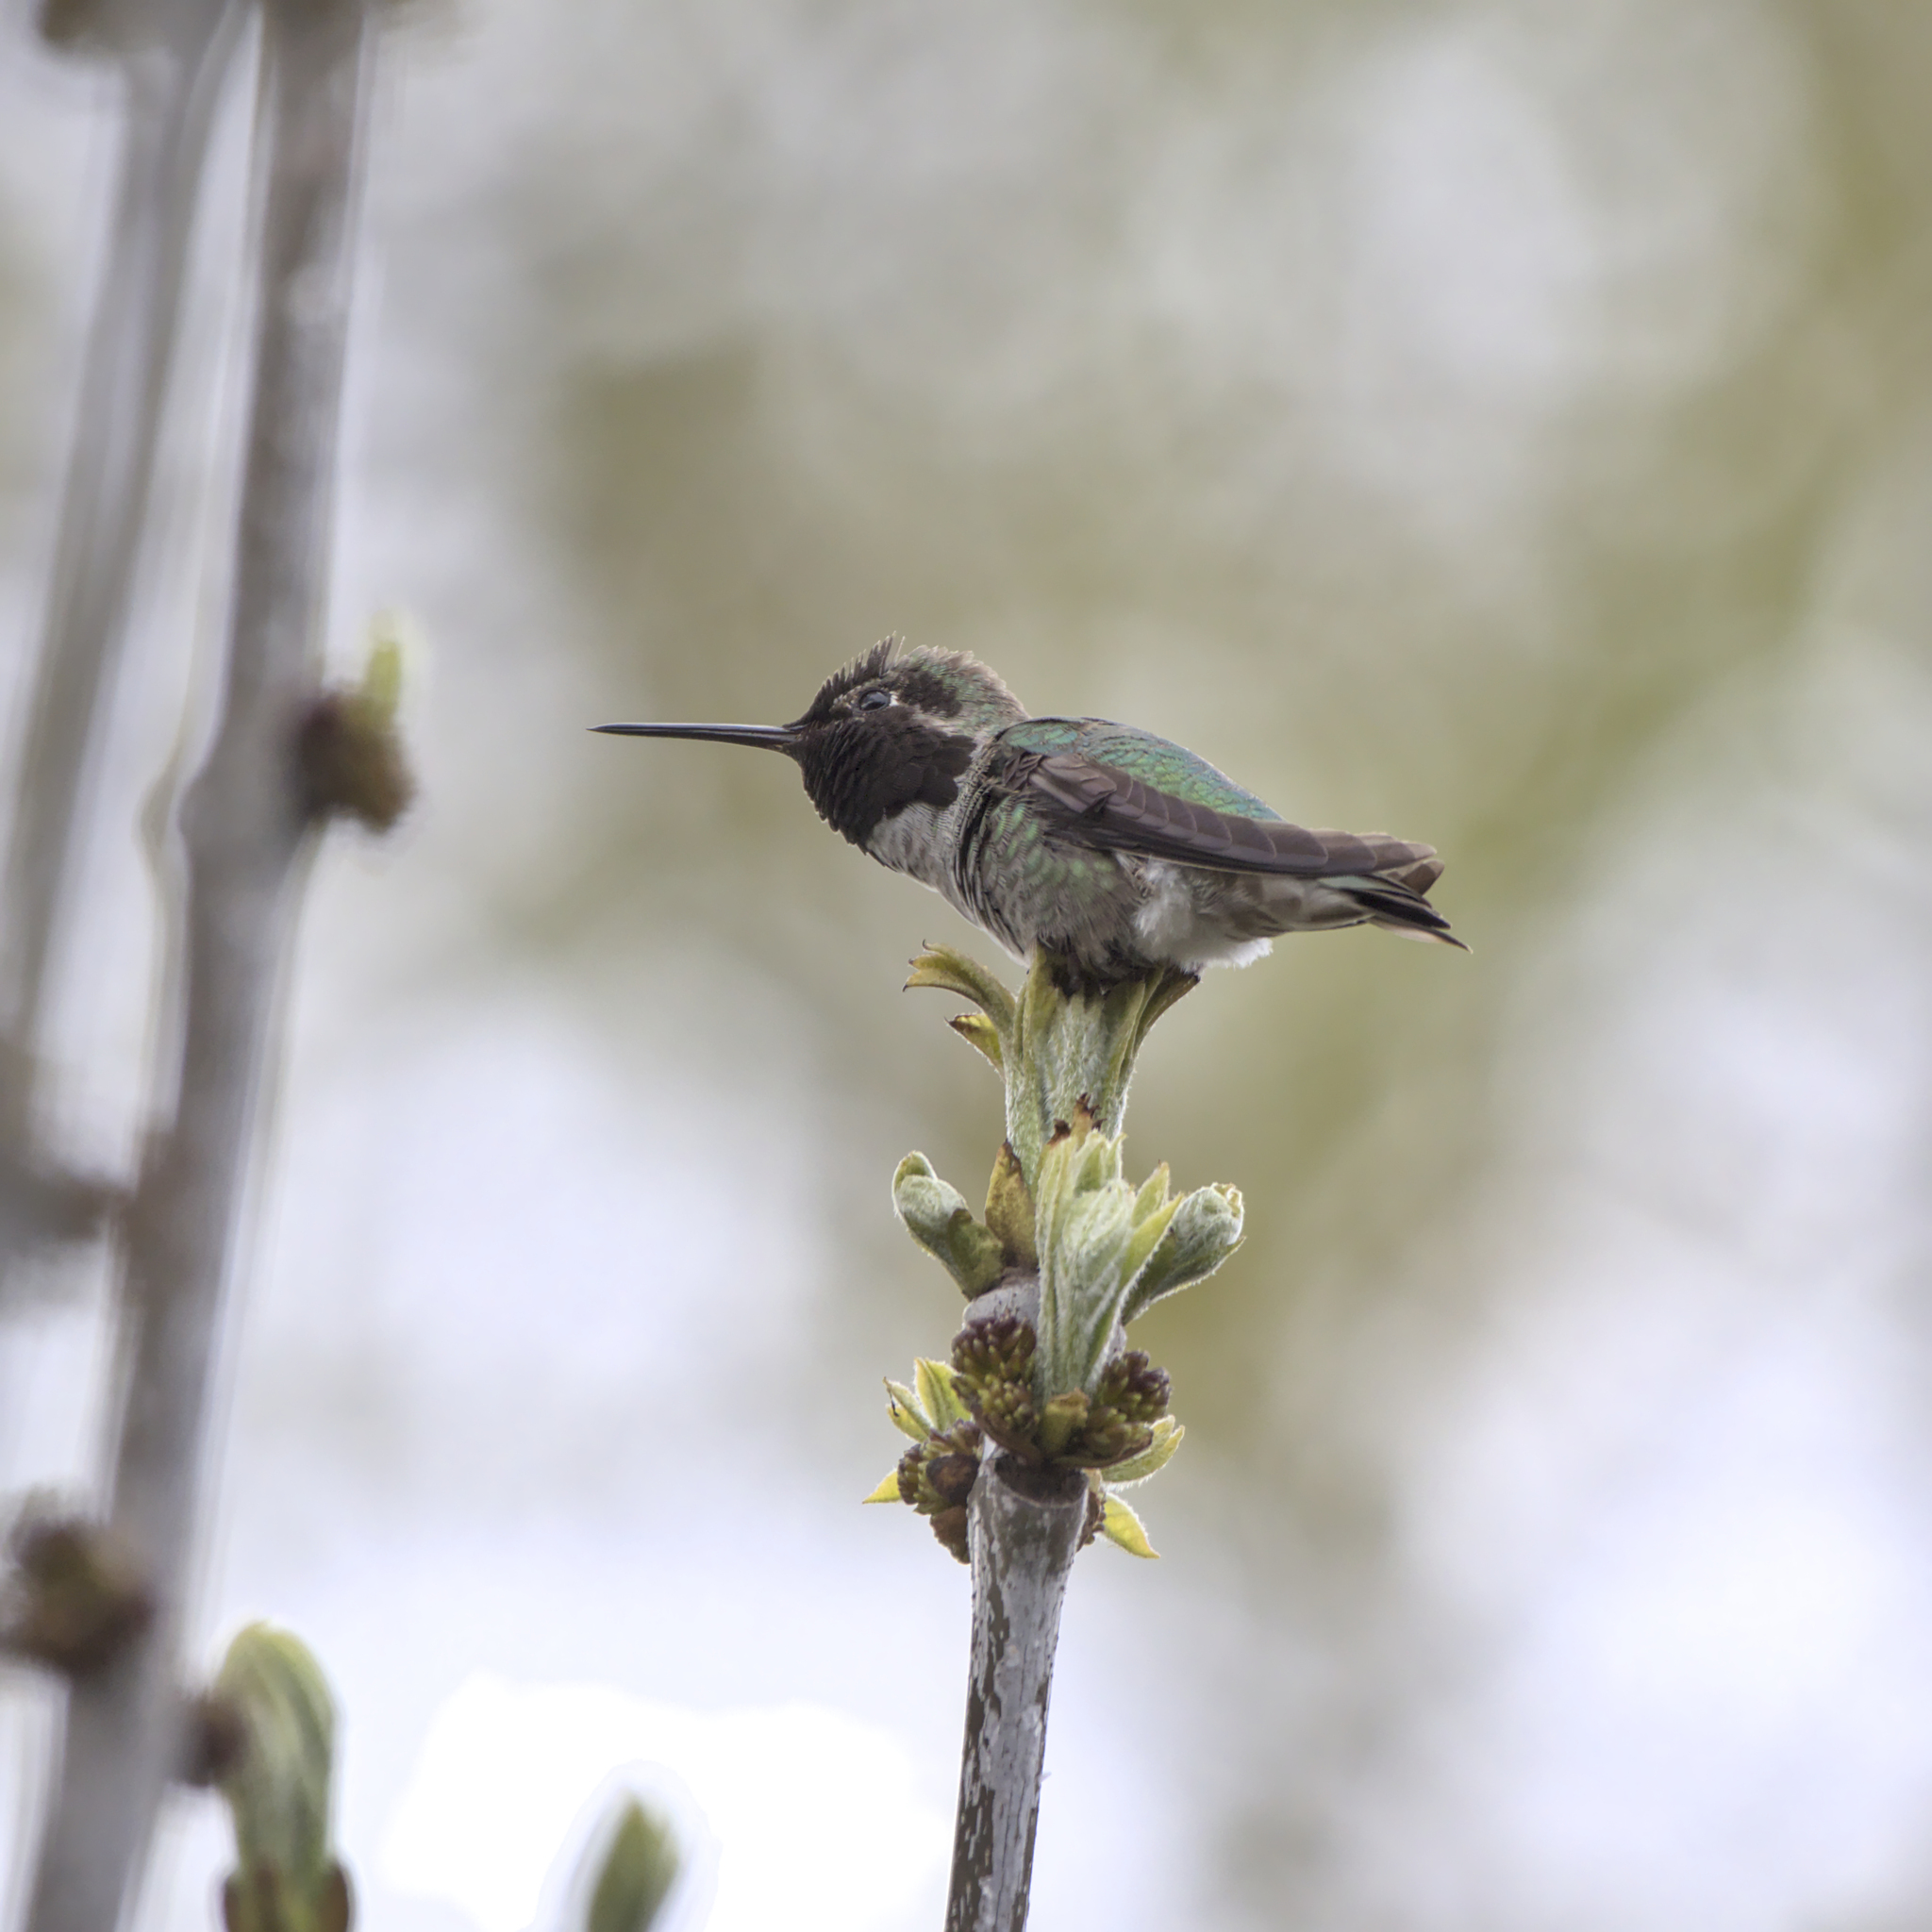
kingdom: Animalia
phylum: Chordata
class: Aves
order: Apodiformes
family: Trochilidae
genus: Calypte
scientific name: Calypte anna
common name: Anna's hummingbird
